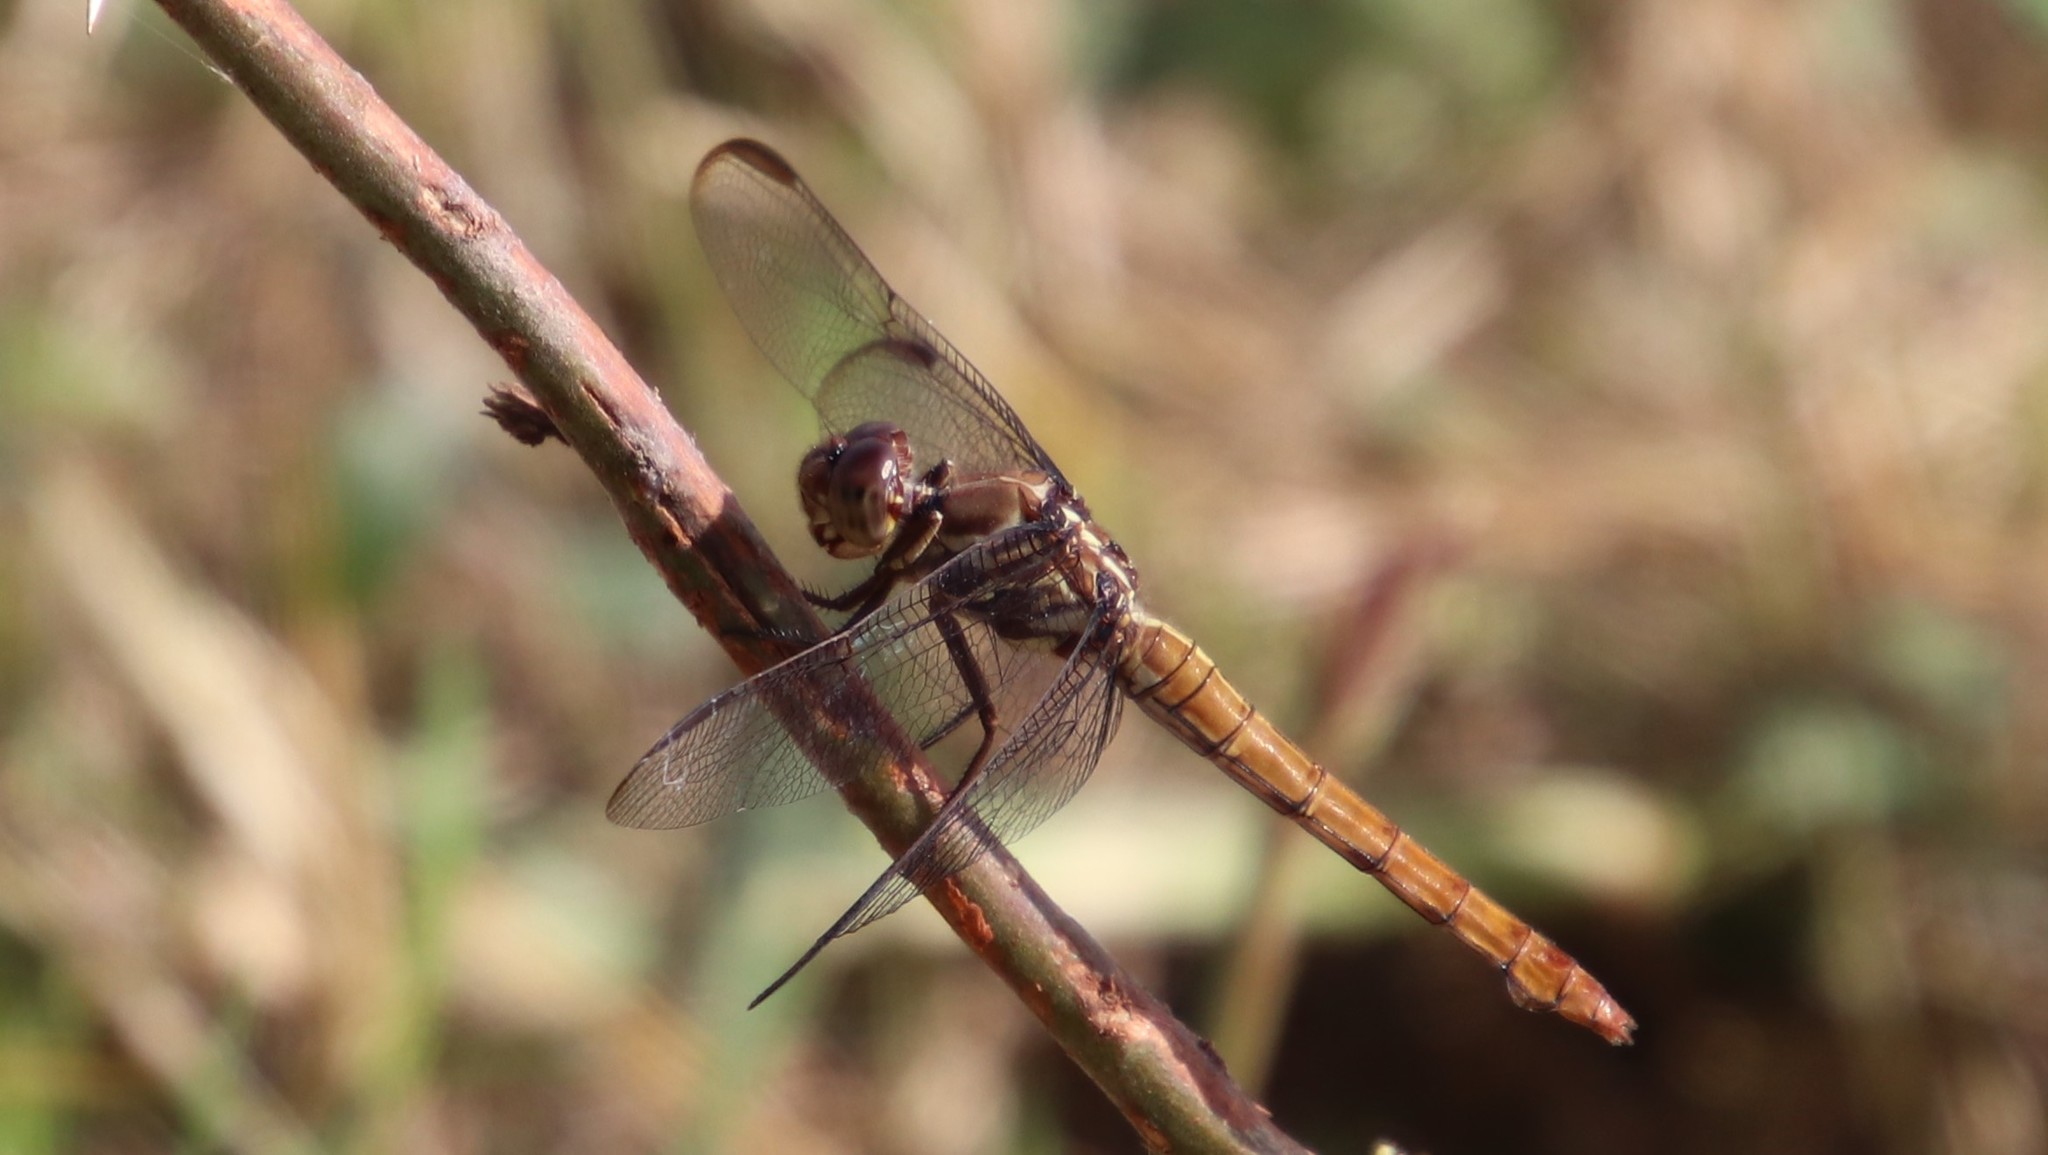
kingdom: Animalia
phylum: Arthropoda
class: Insecta
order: Odonata
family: Libellulidae
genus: Orthemis
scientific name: Orthemis ferruginea
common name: Roseate skimmer
